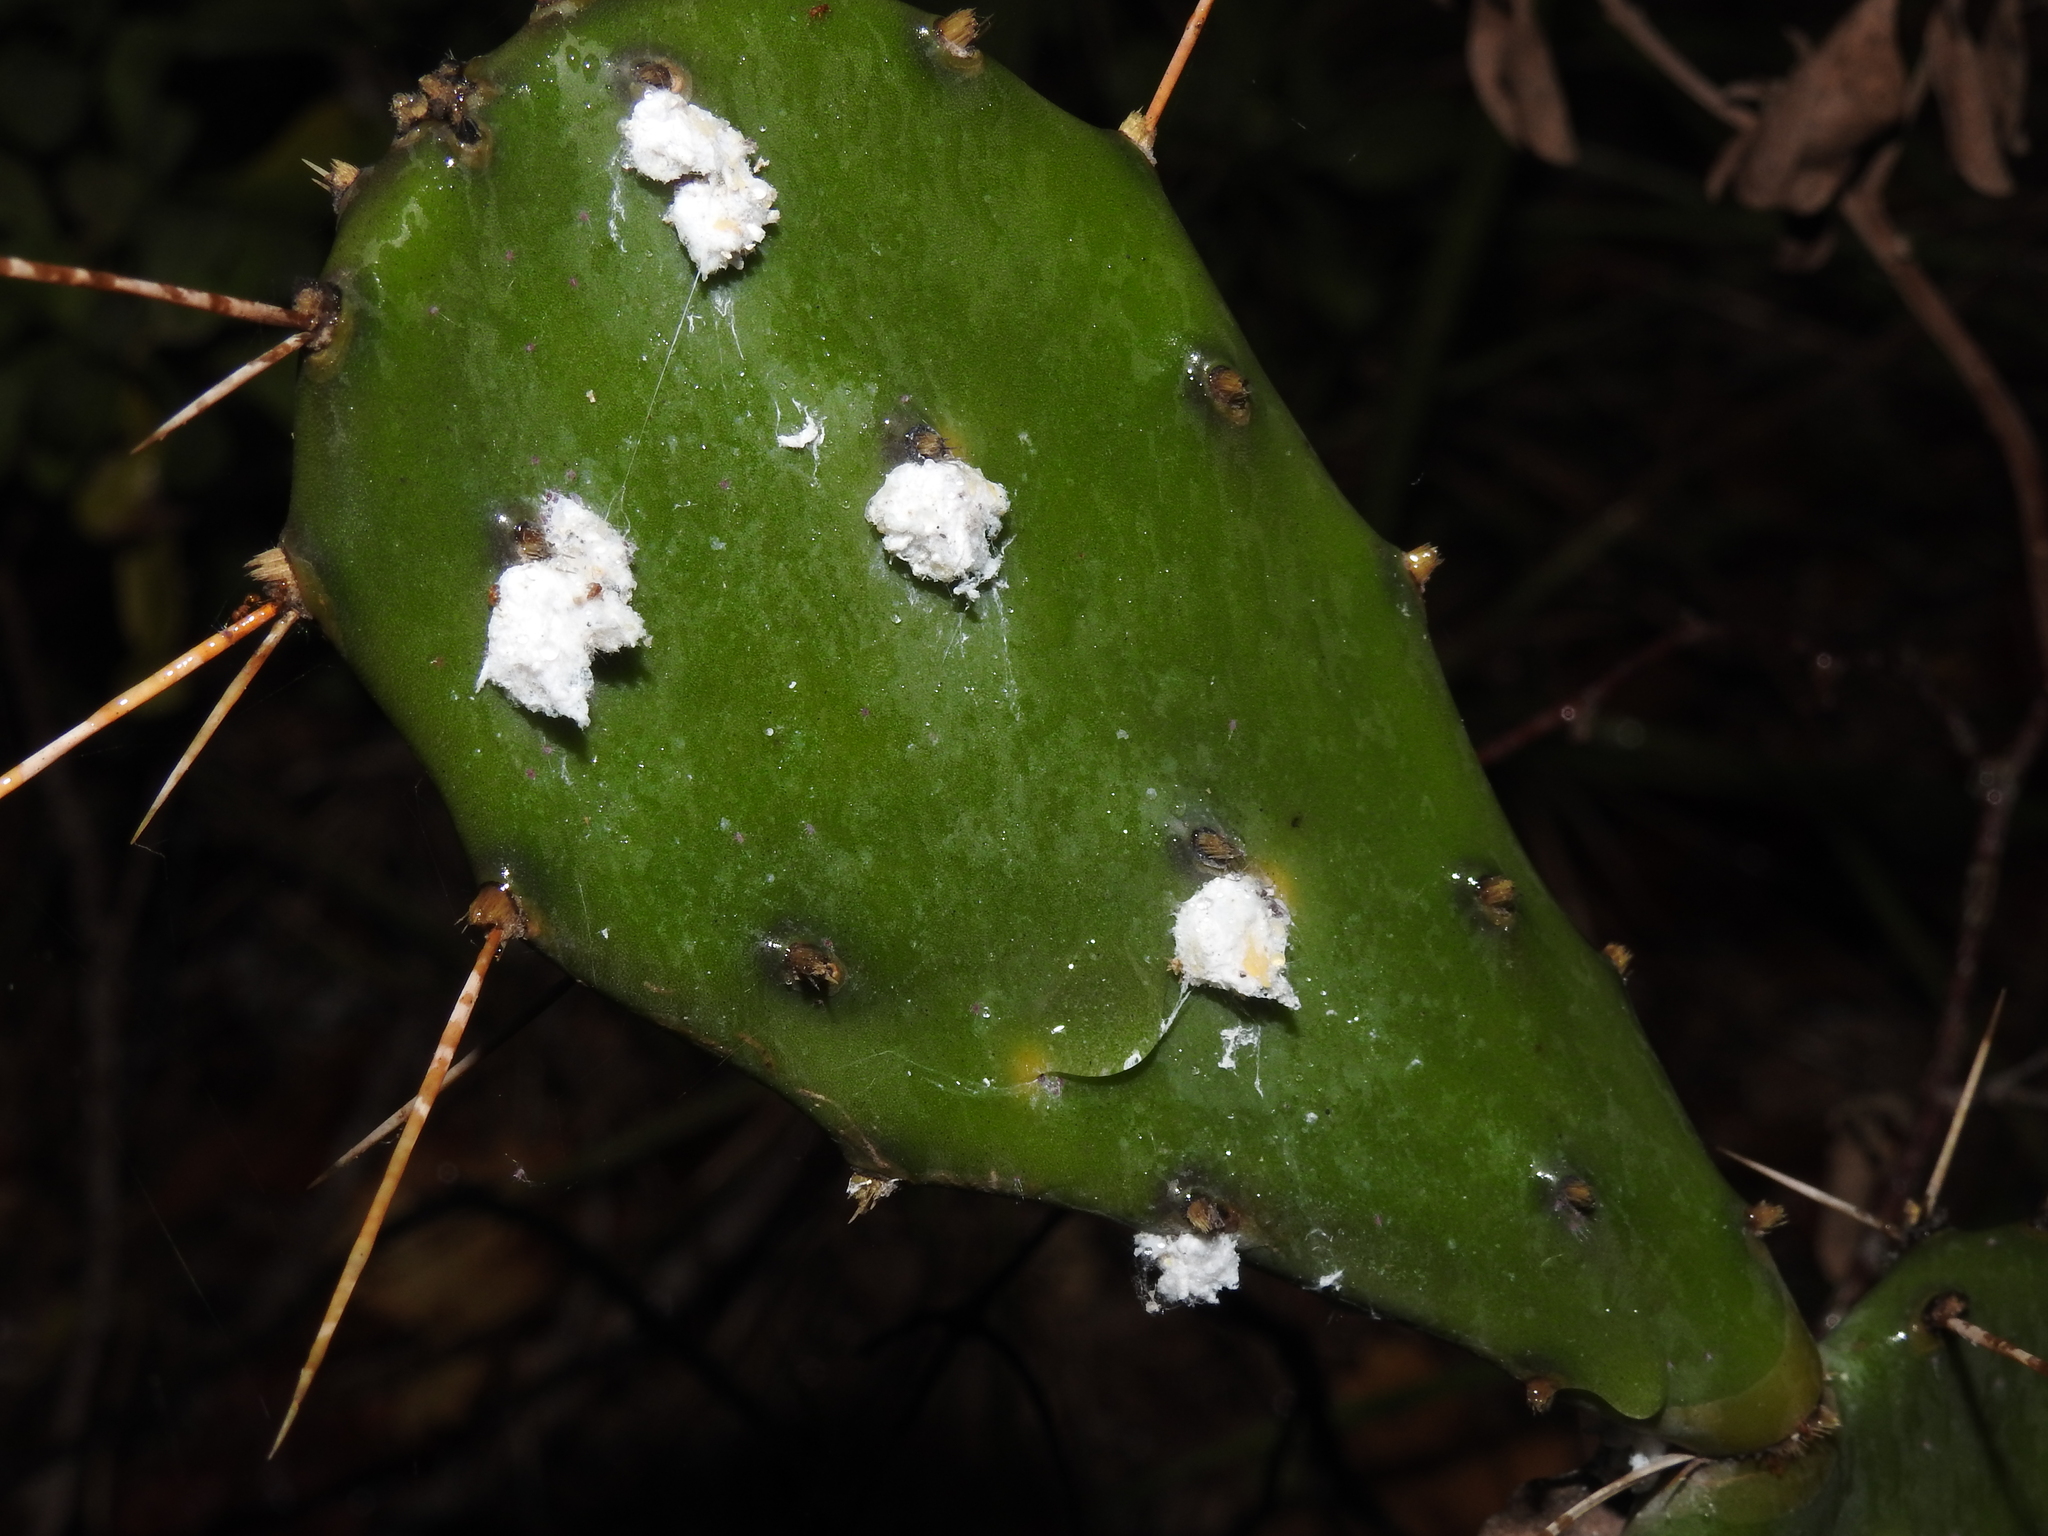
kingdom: Animalia
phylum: Arthropoda
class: Insecta
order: Hemiptera
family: Dactylopiidae
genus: Dactylopius
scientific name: Dactylopius confusus
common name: California cochineal scale
